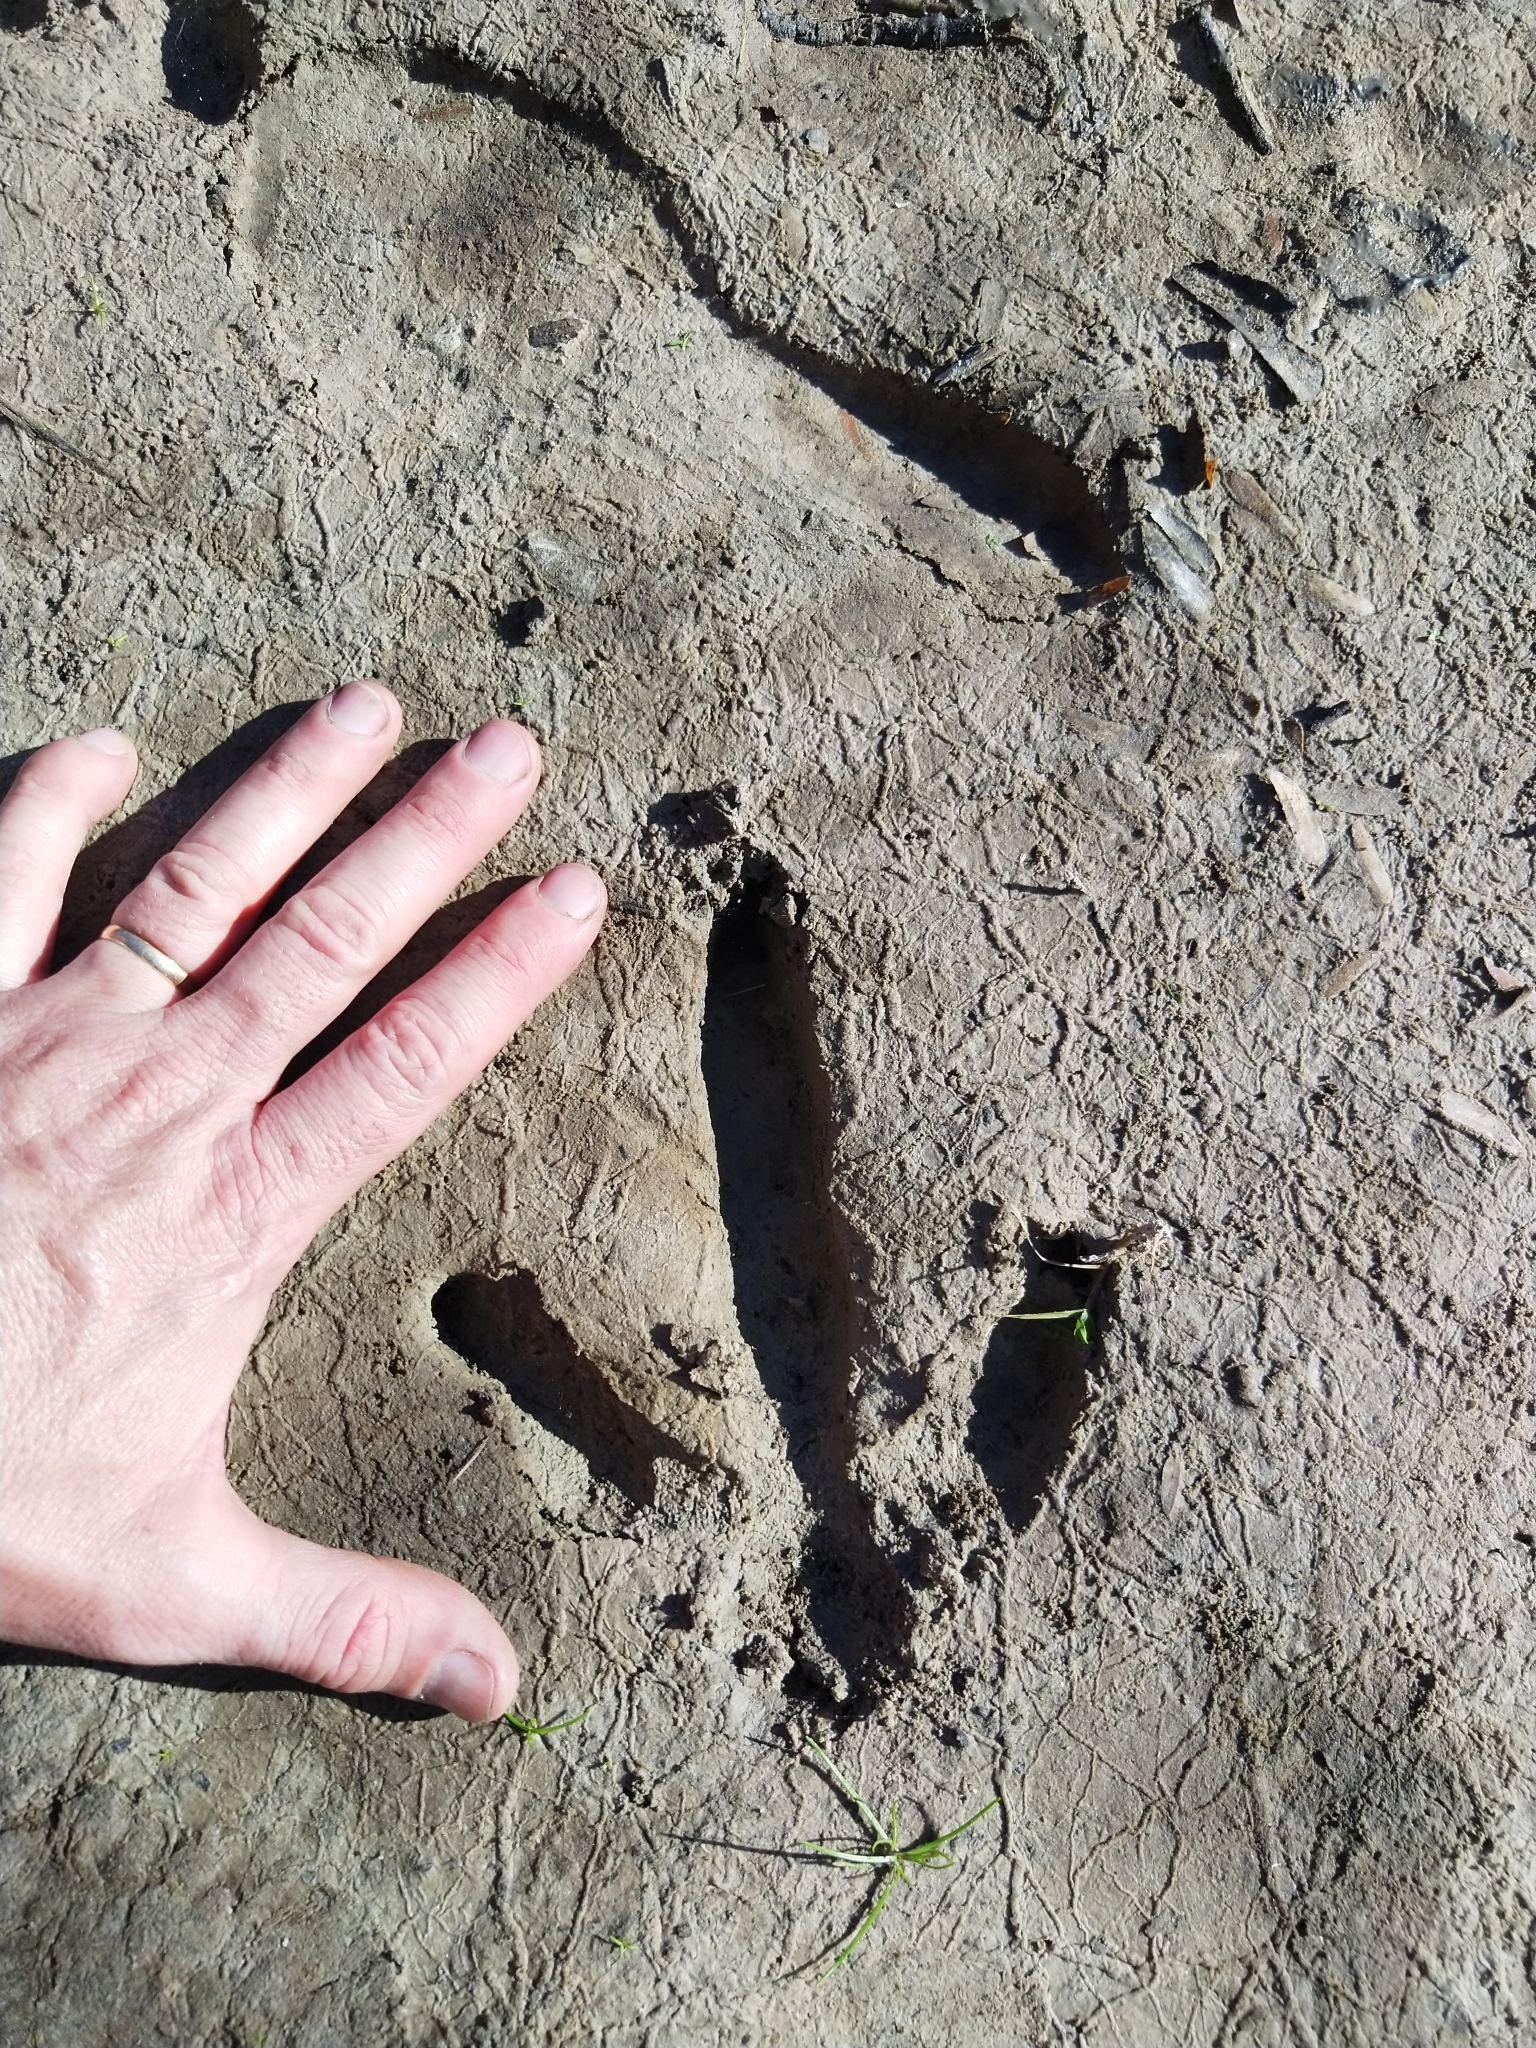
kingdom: Animalia
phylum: Chordata
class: Aves
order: Rheiformes
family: Rheidae
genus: Rhea
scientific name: Rhea americana
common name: Greater rhea
